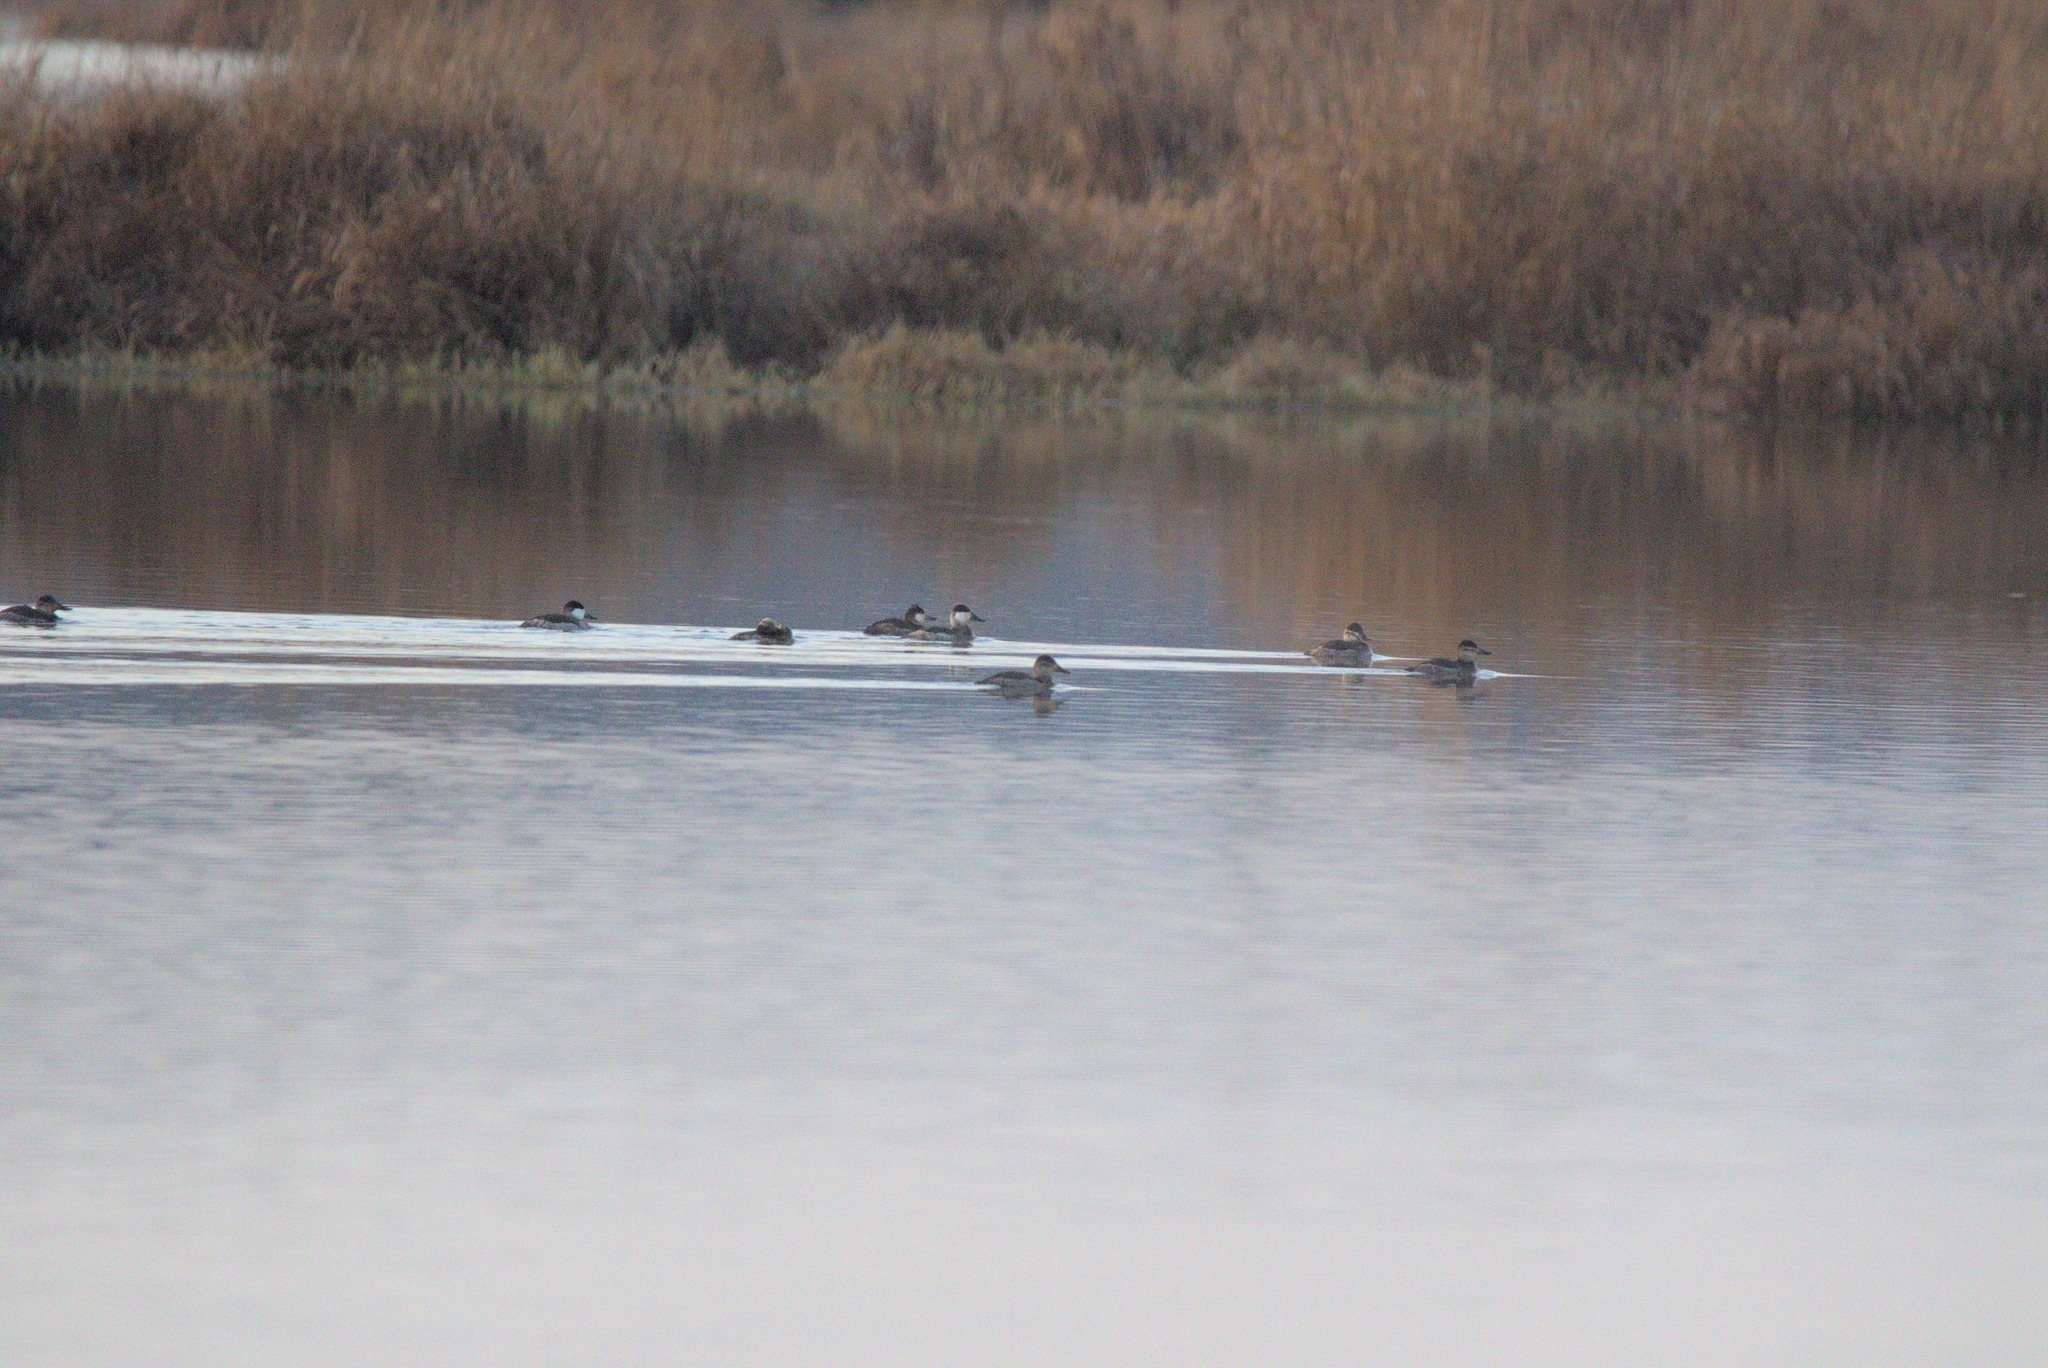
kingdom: Animalia
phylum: Chordata
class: Aves
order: Anseriformes
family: Anatidae
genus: Oxyura
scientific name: Oxyura jamaicensis
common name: Ruddy duck
